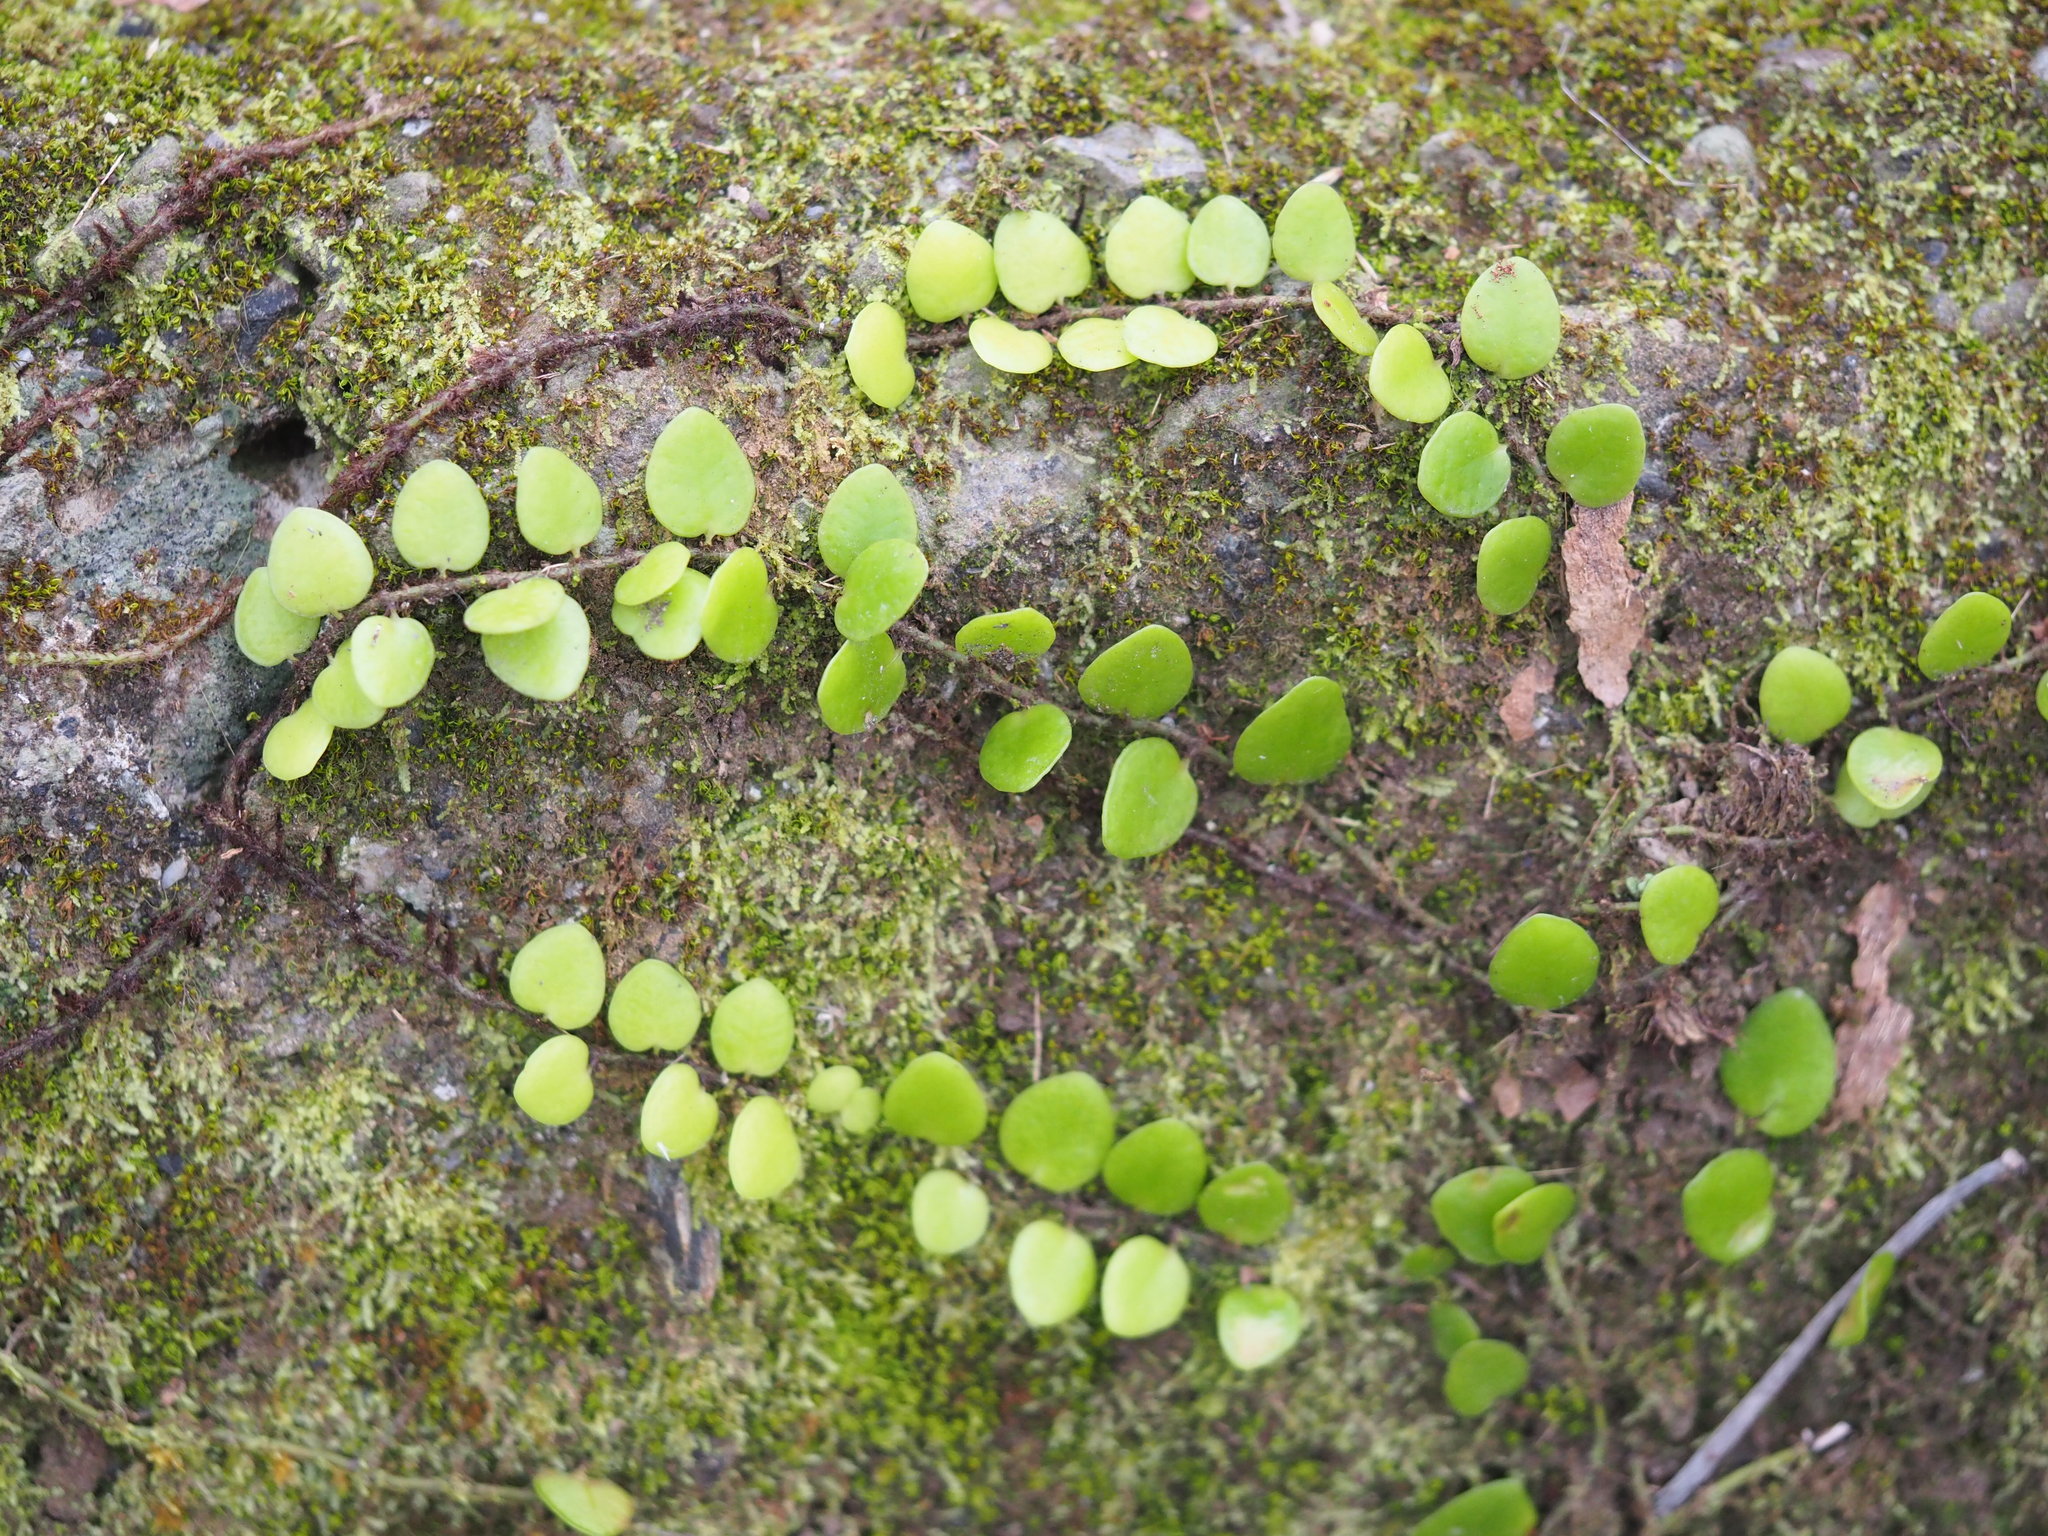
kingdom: Plantae
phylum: Tracheophyta
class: Polypodiopsida
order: Polypodiales
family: Polypodiaceae
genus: Lepisorus
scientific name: Lepisorus microphyllus
